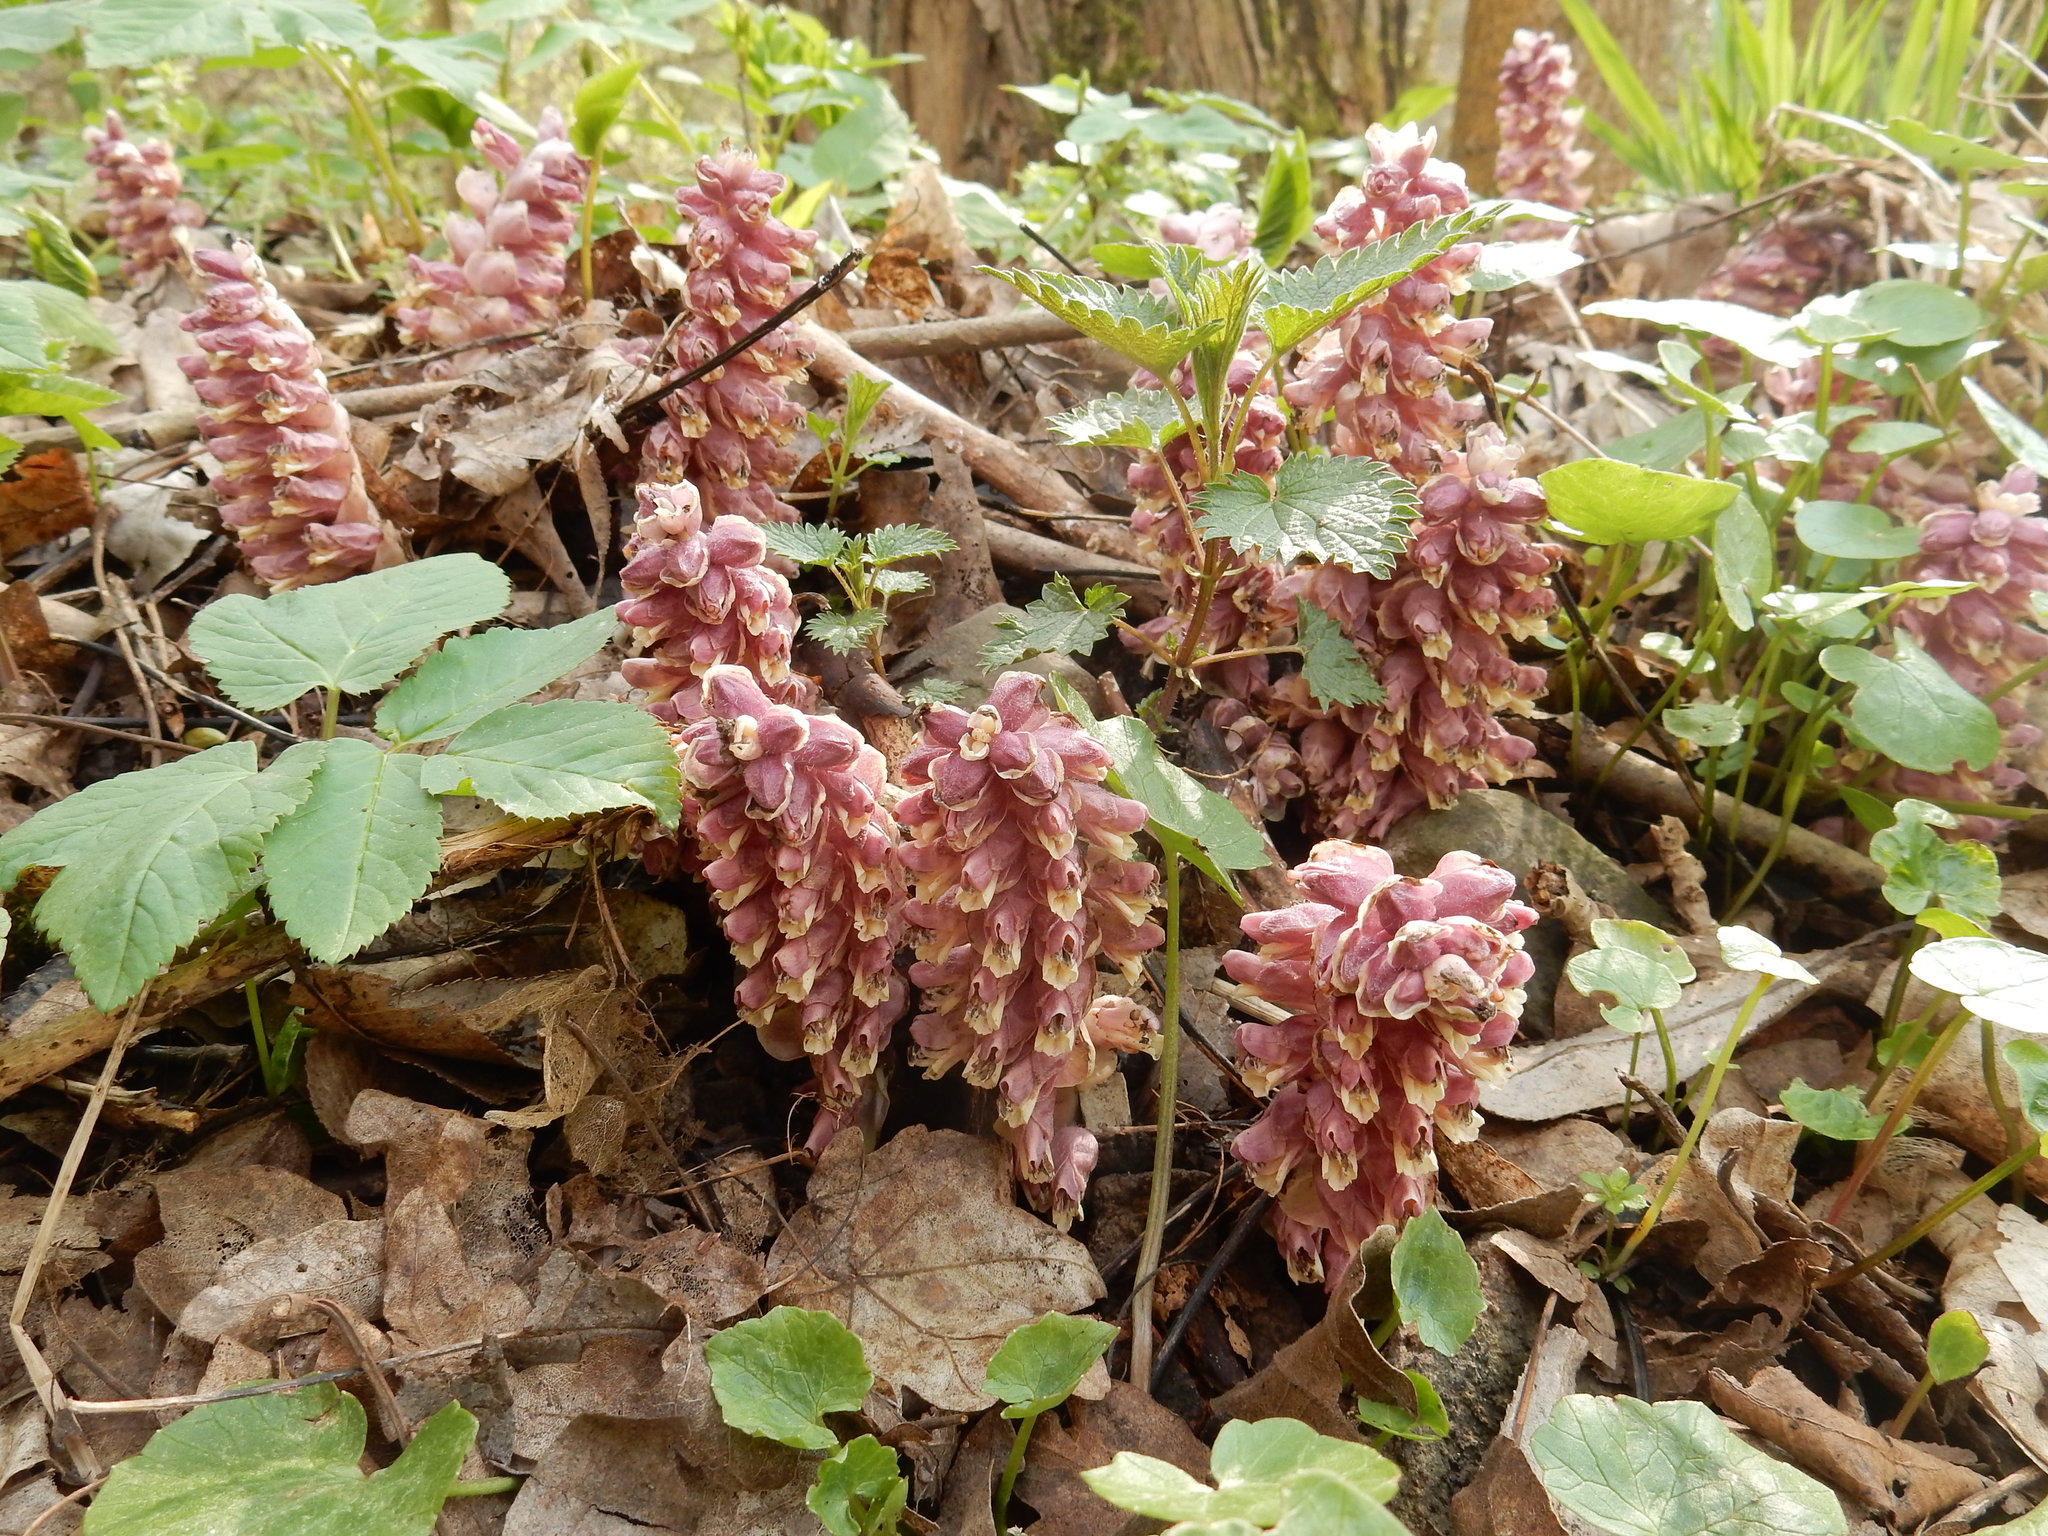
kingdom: Plantae
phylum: Tracheophyta
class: Magnoliopsida
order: Lamiales
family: Orobanchaceae
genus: Lathraea
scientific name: Lathraea squamaria
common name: Toothwort
